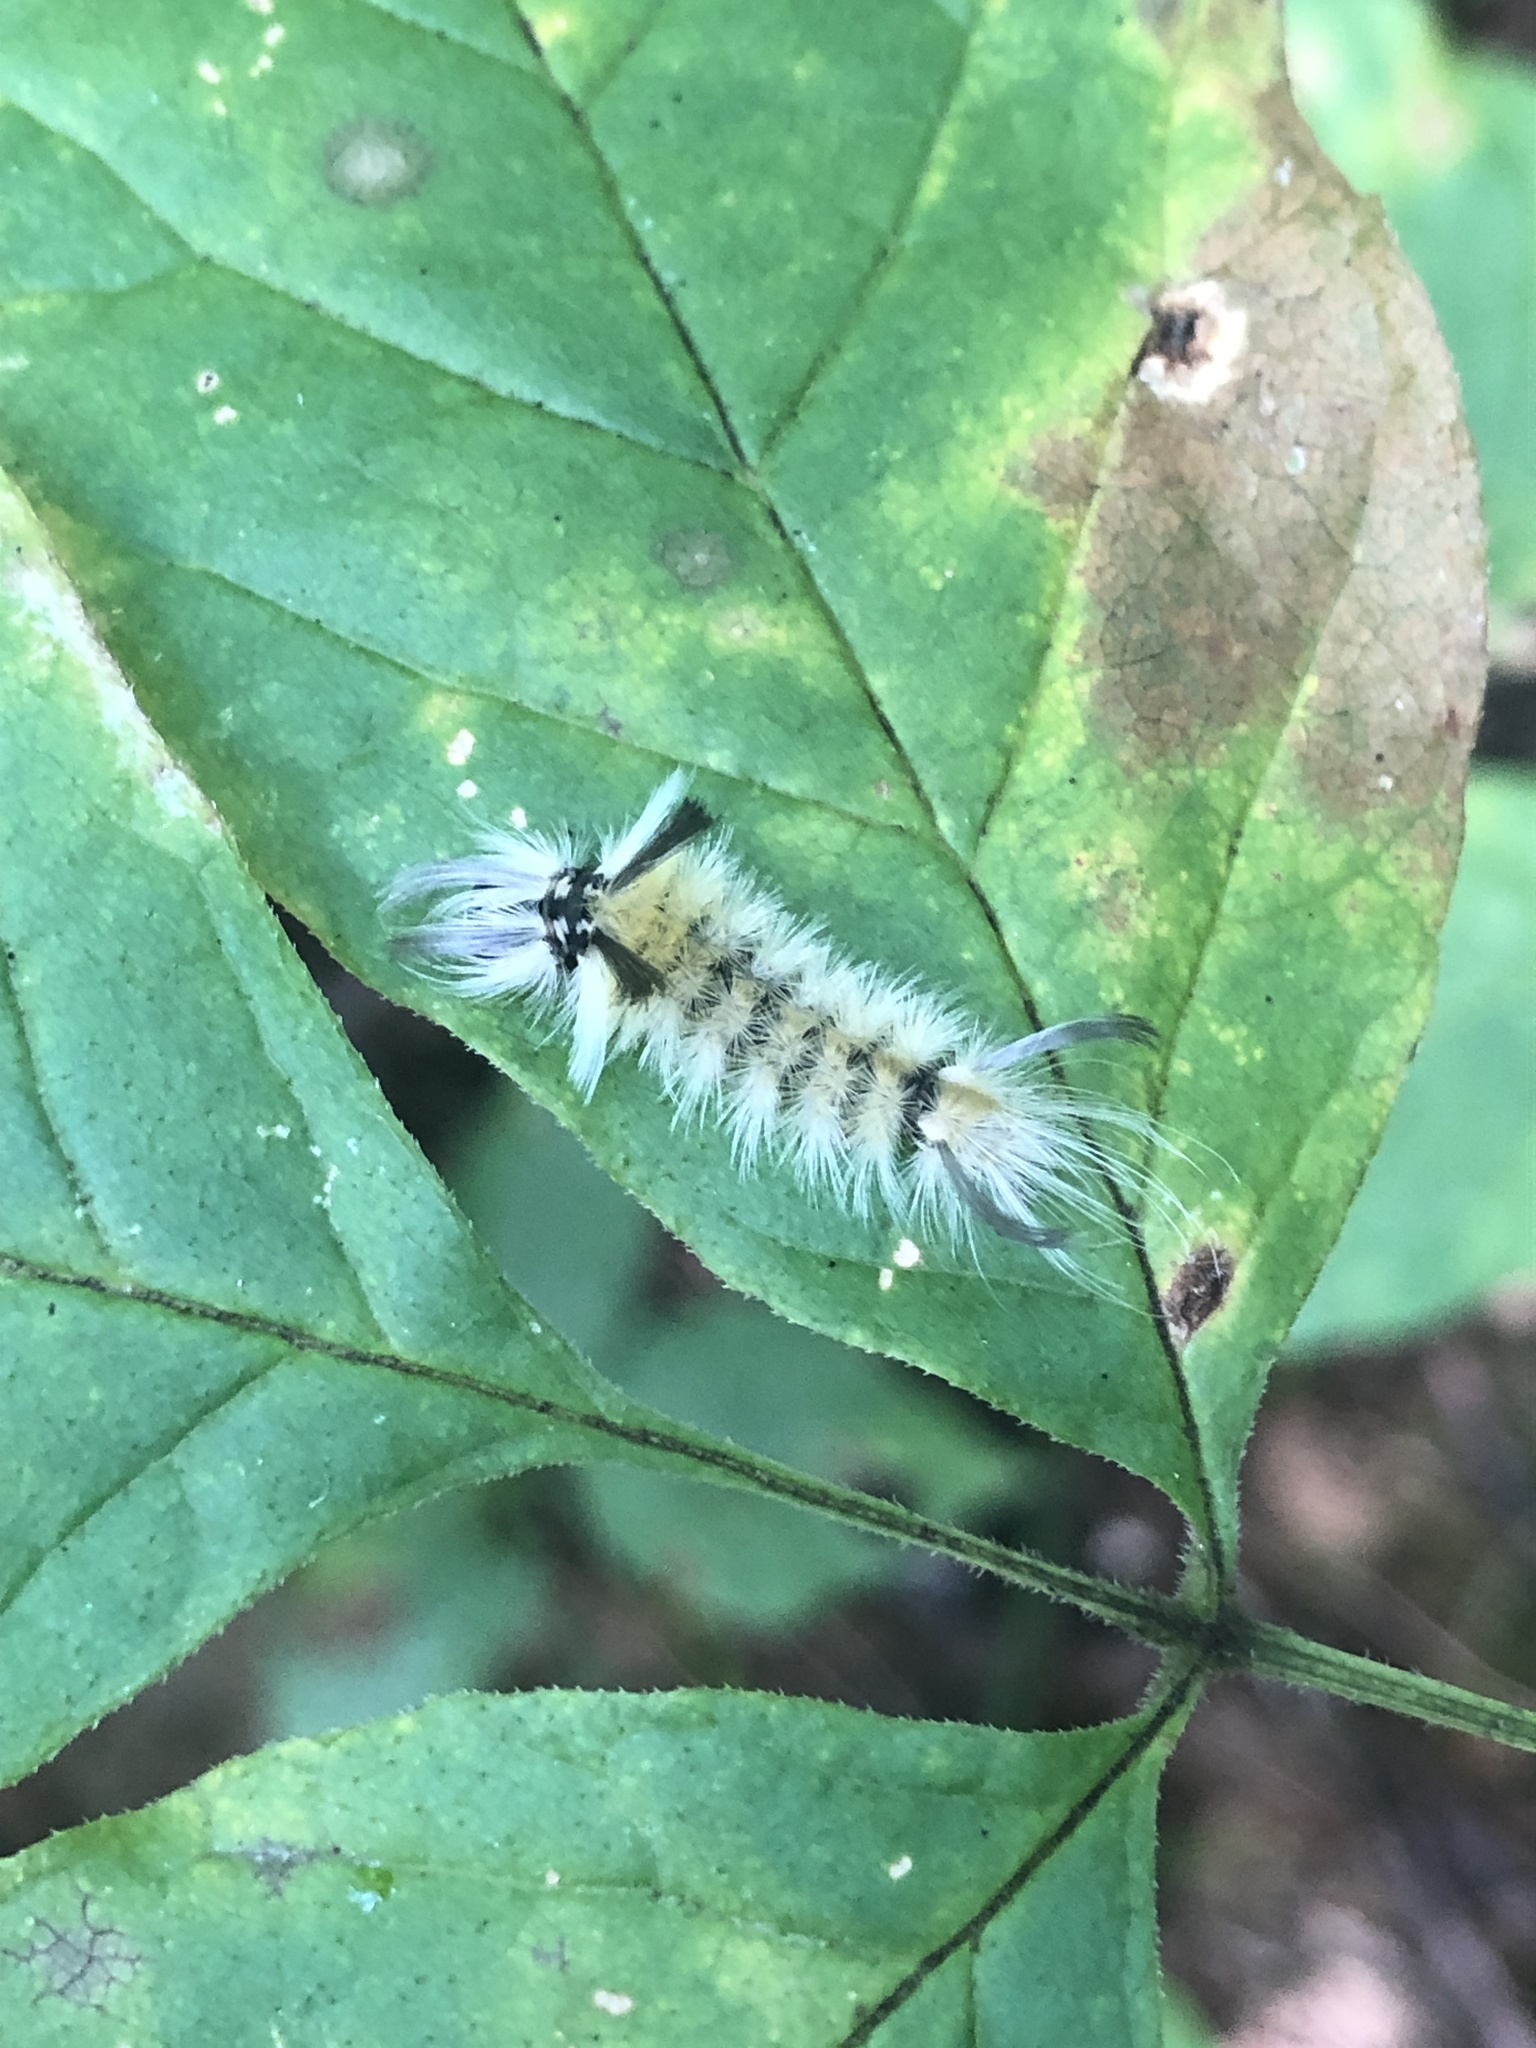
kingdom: Animalia
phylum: Arthropoda
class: Insecta
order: Lepidoptera
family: Erebidae
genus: Halysidota
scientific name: Halysidota tessellaris
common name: Banded tussock moth
